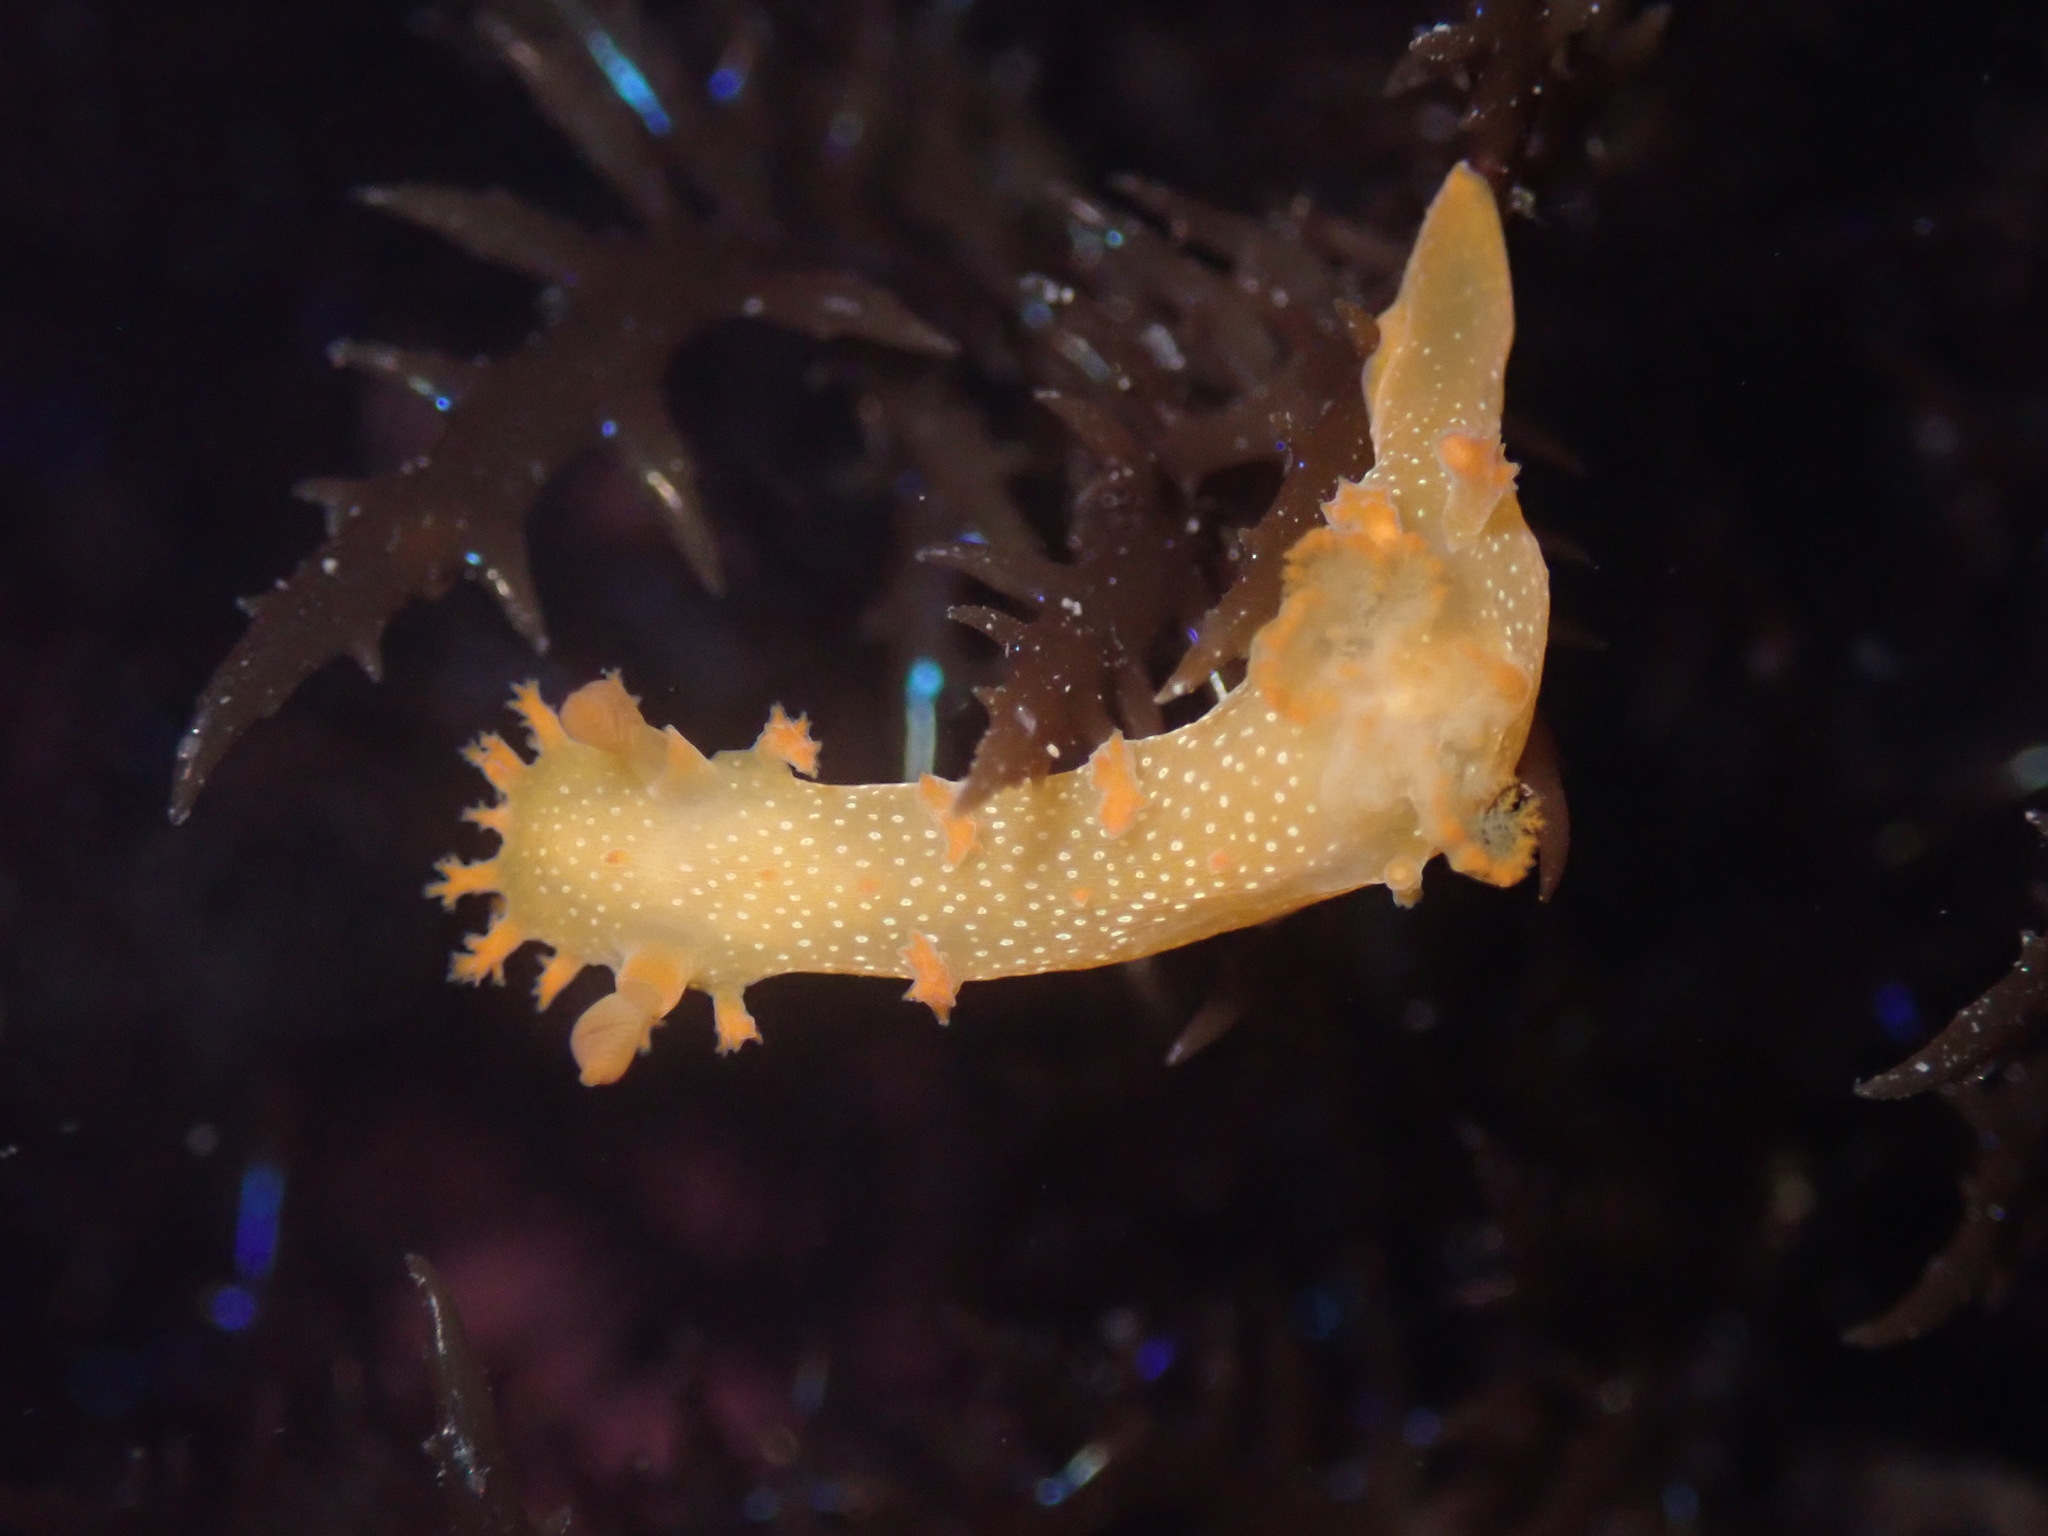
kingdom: Animalia
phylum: Mollusca
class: Gastropoda
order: Nudibranchia
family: Polyceridae
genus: Triopha
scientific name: Triopha maculata
